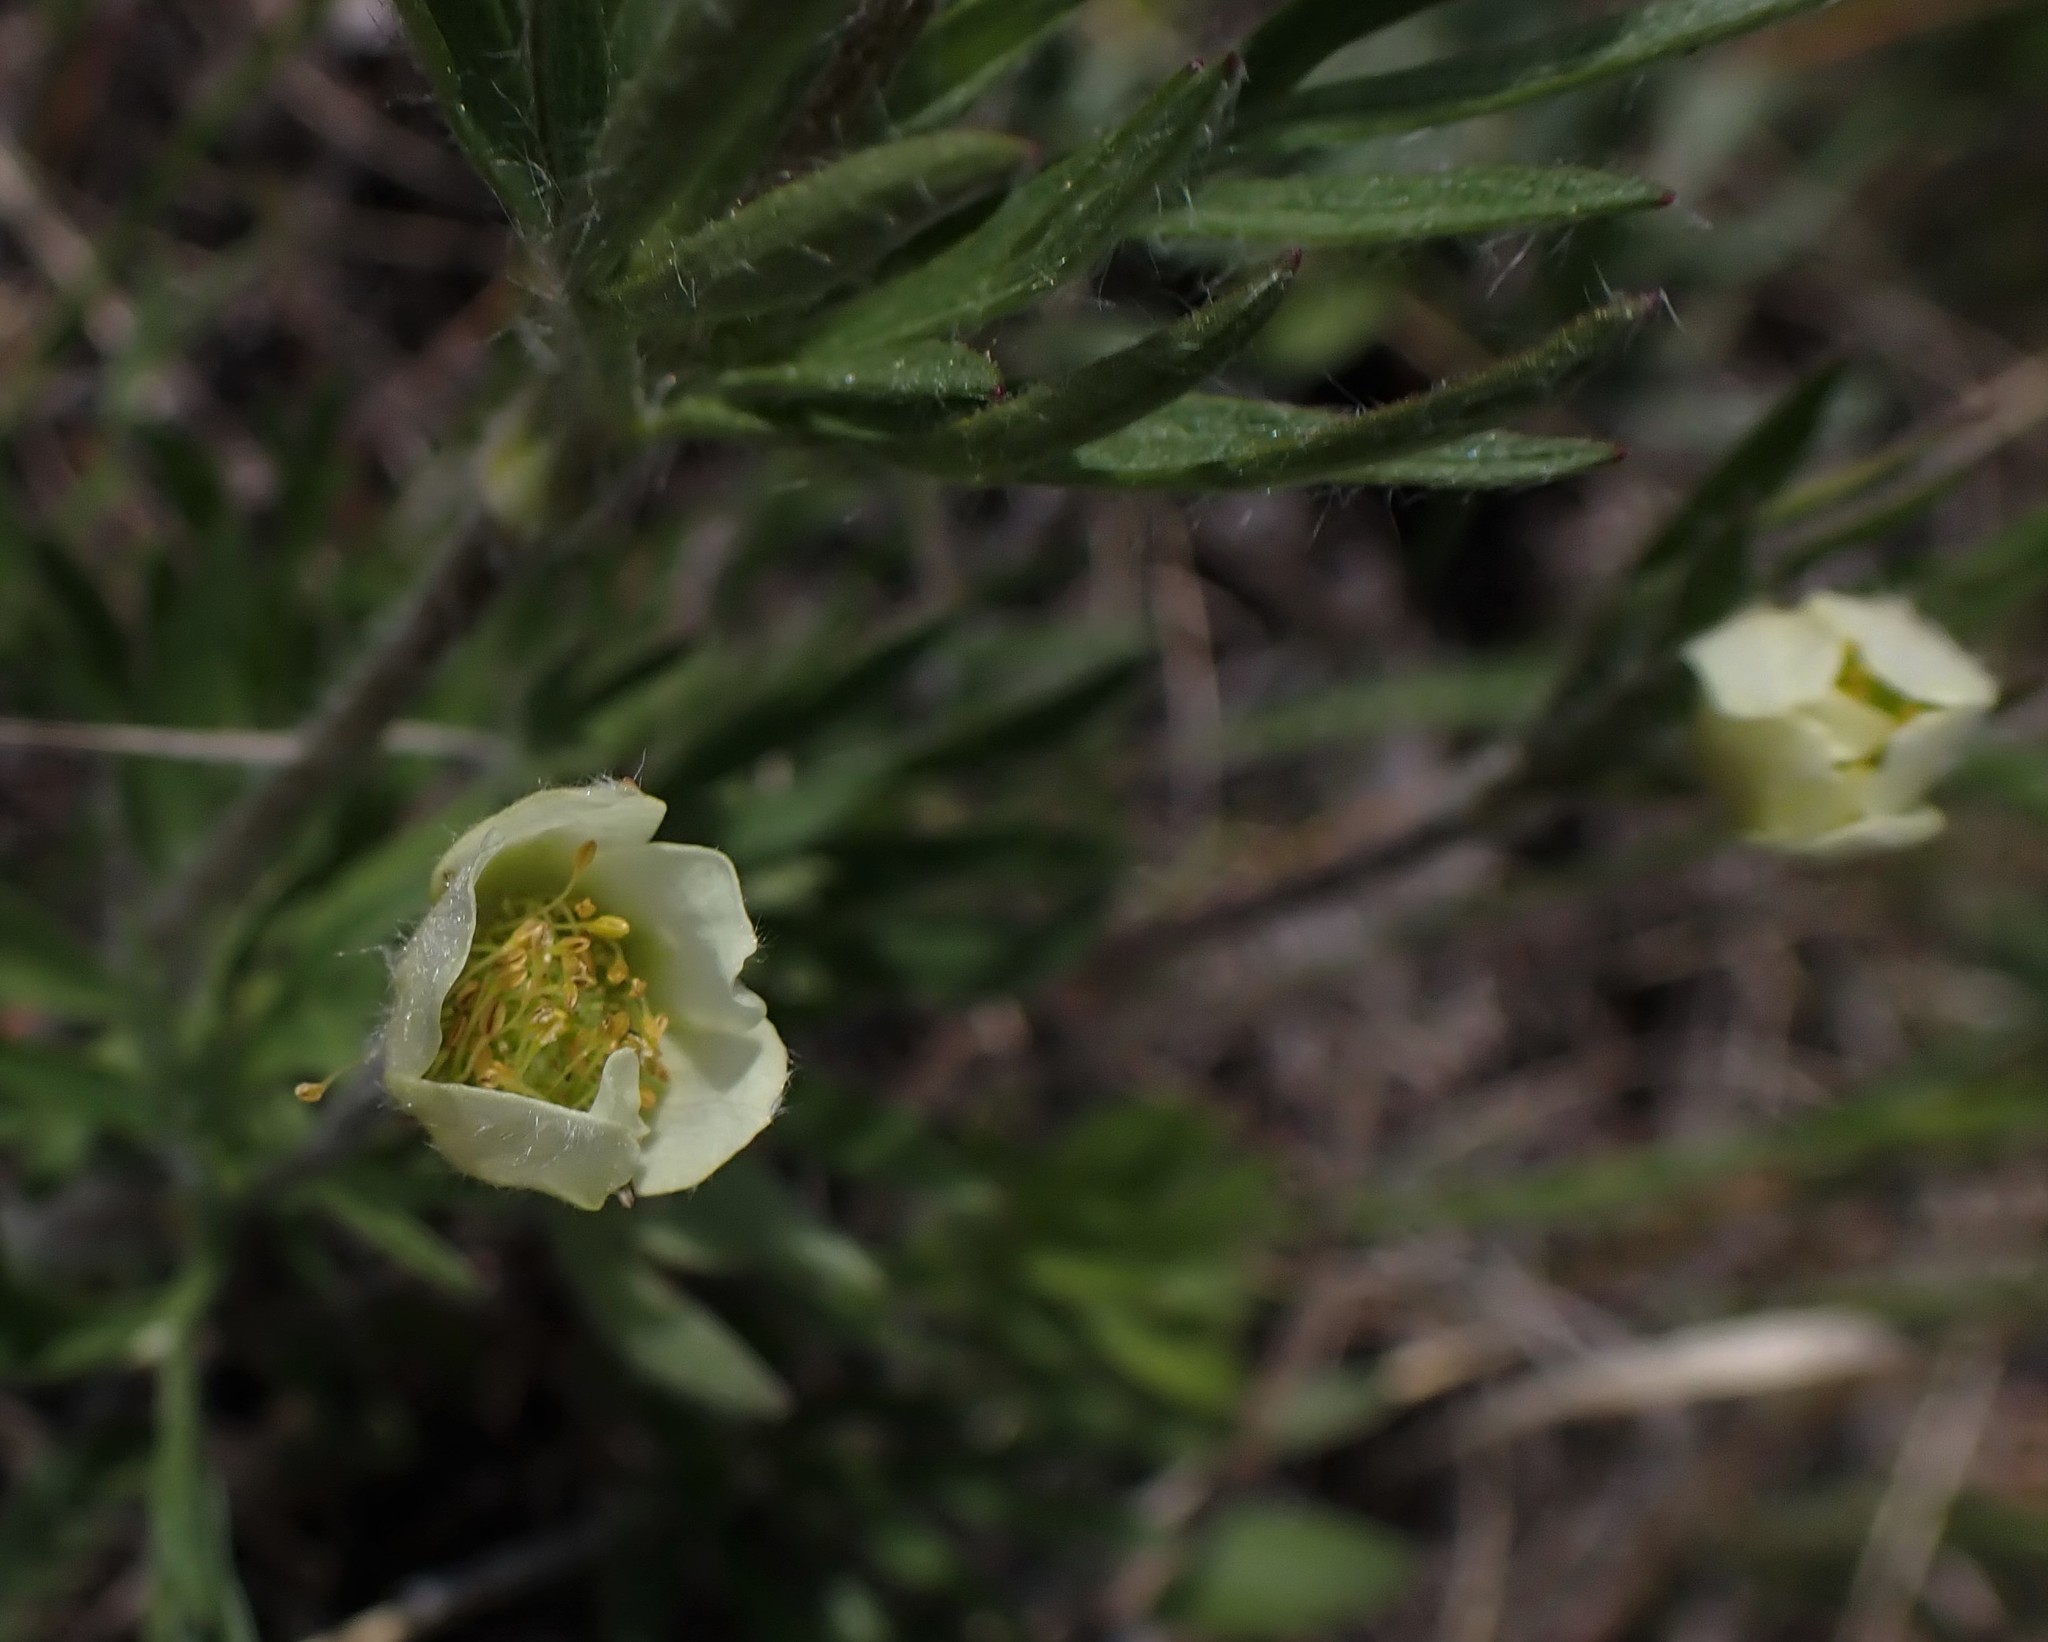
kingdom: Plantae
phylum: Tracheophyta
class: Magnoliopsida
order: Ranunculales
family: Ranunculaceae
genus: Anemone
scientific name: Anemone multifida
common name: Bird's-foot anemone
